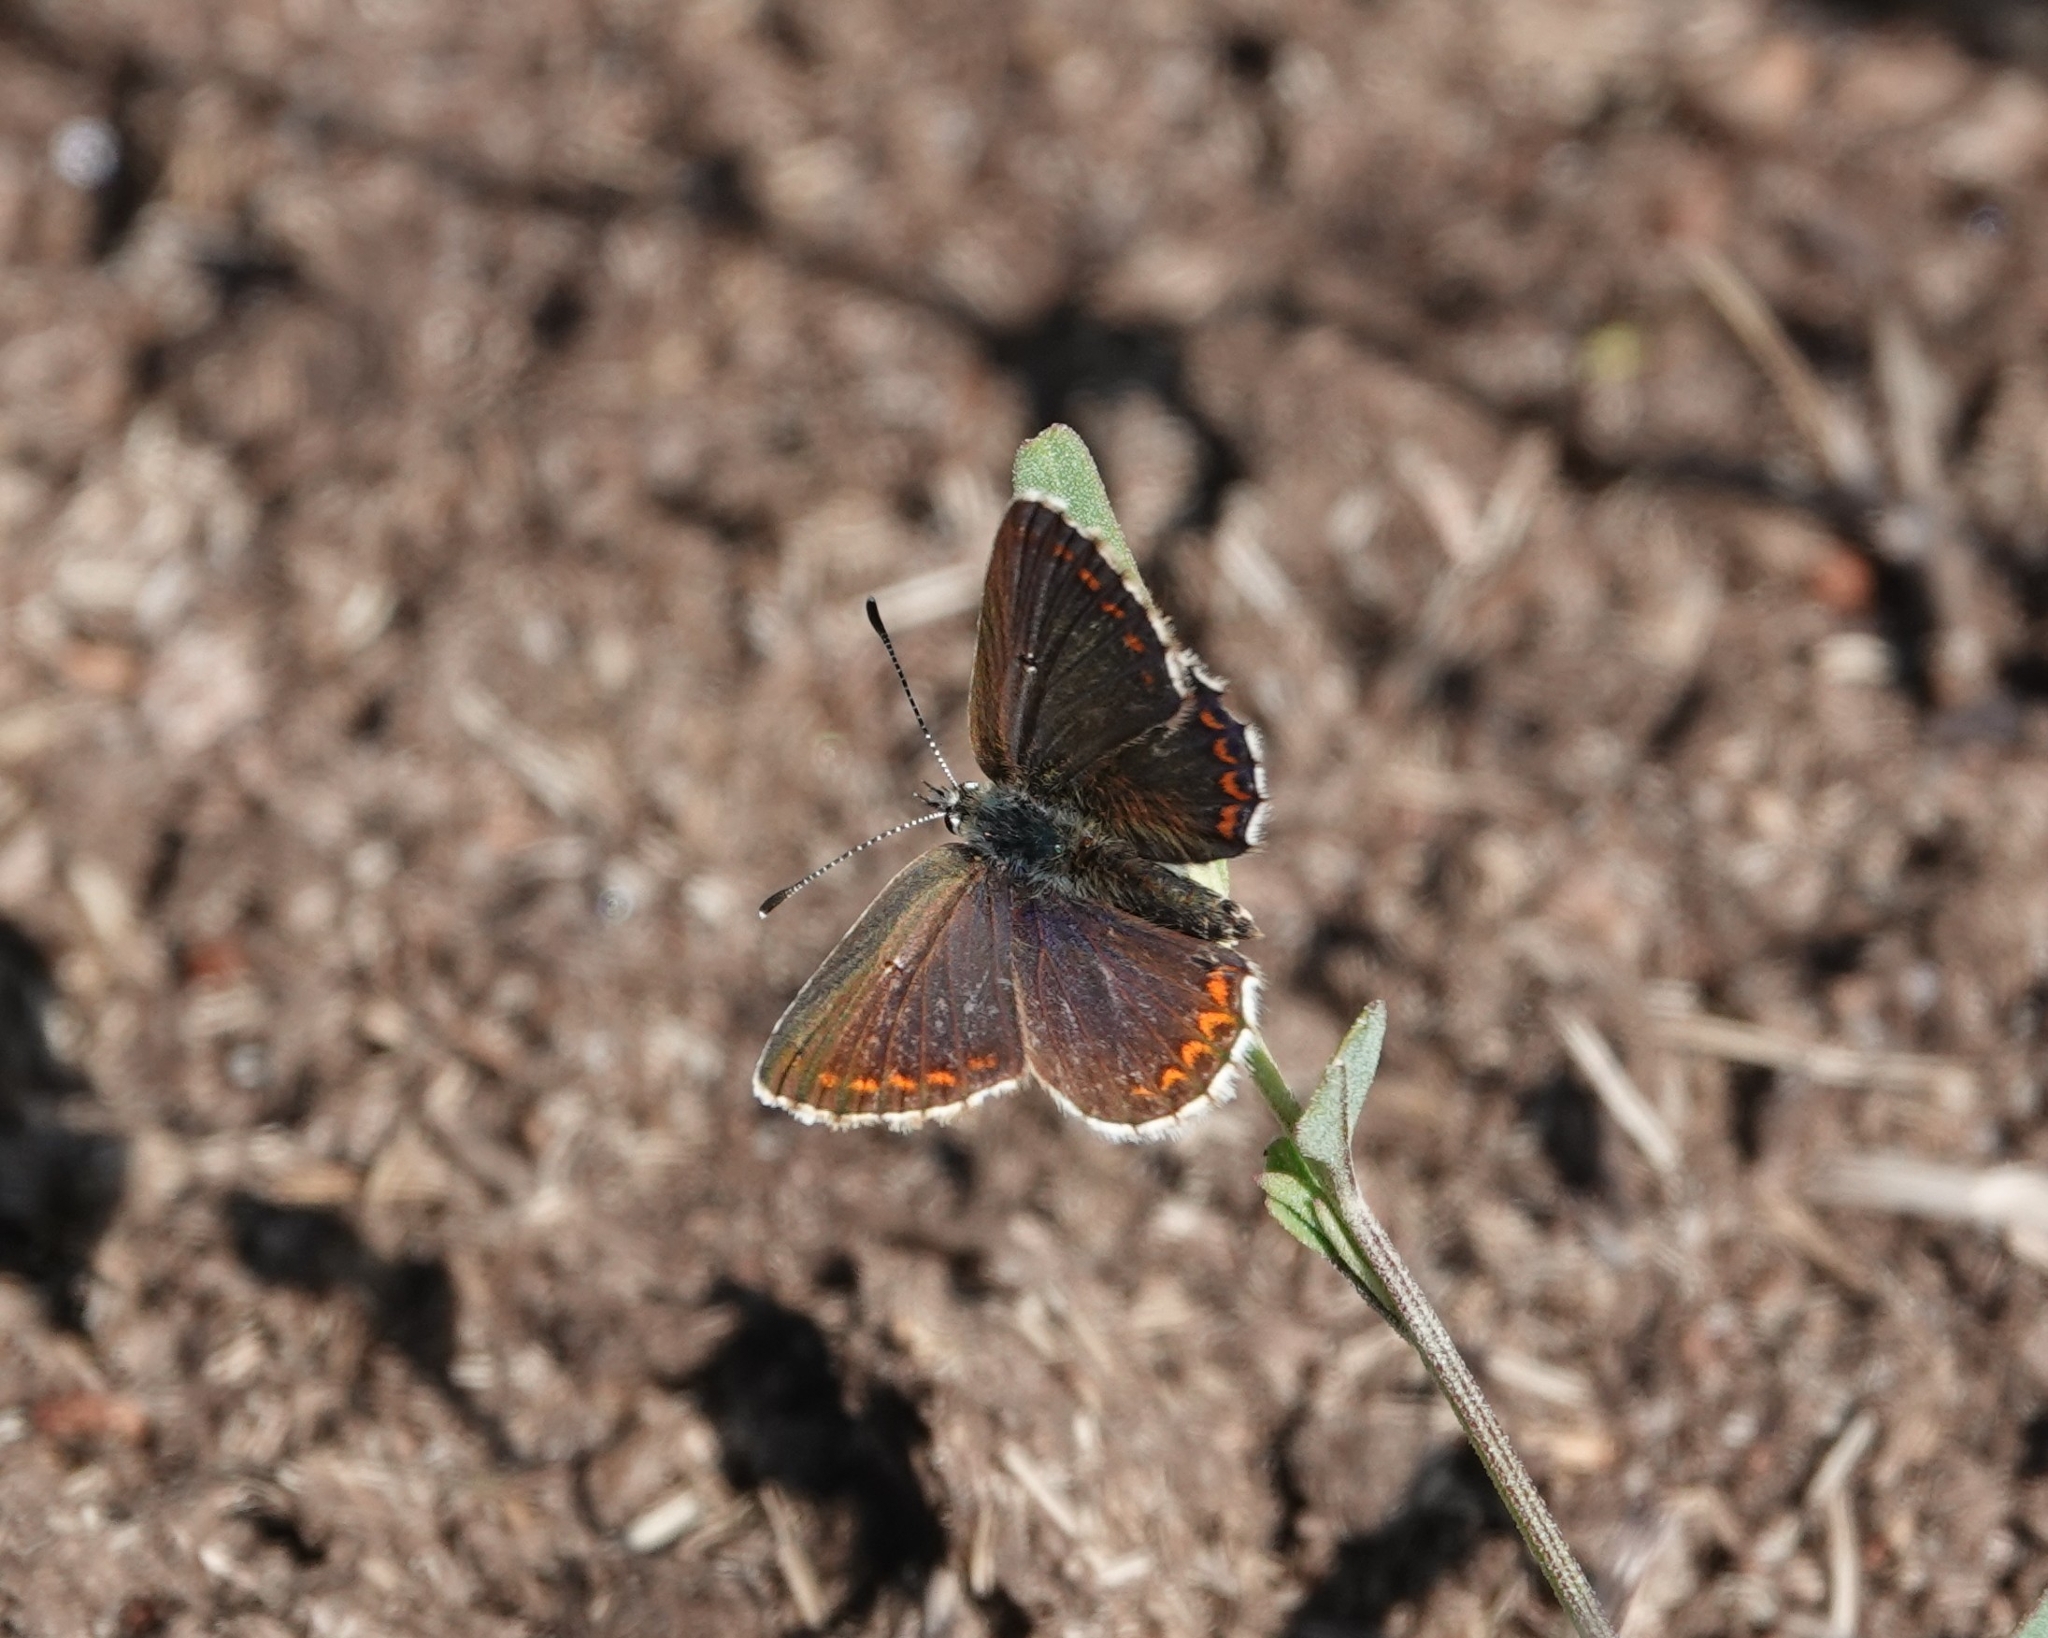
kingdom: Animalia
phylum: Arthropoda
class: Insecta
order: Lepidoptera
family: Lycaenidae
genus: Aricia
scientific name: Aricia artaxerxes
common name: Northern brown argus
